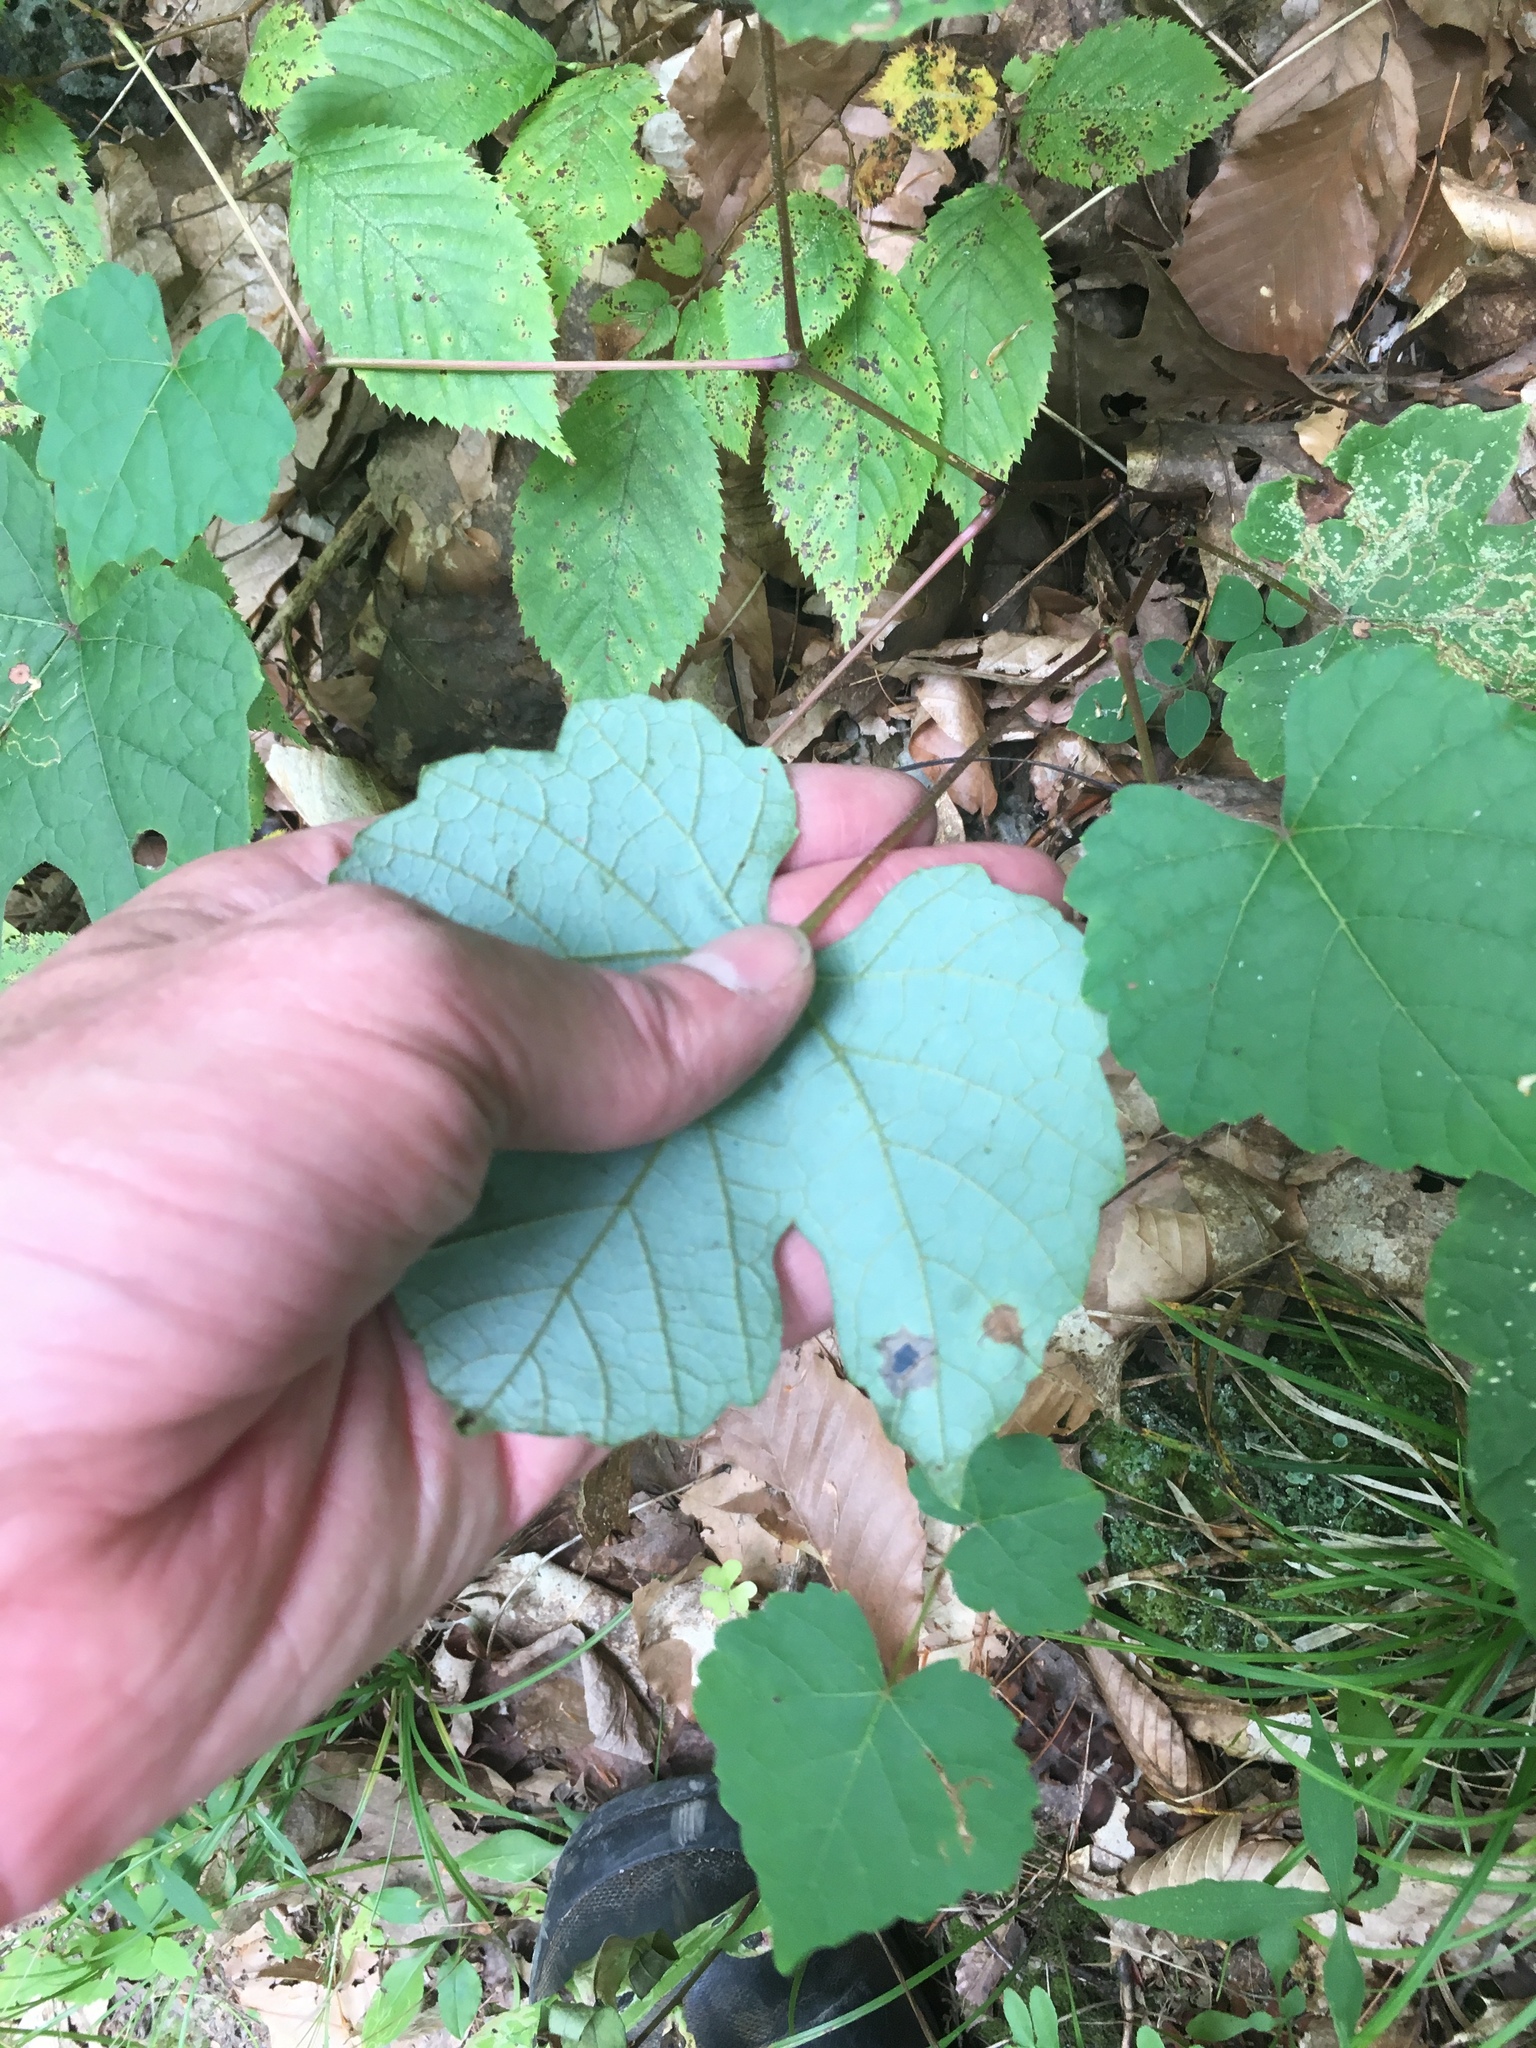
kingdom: Plantae
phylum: Tracheophyta
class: Magnoliopsida
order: Vitales
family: Vitaceae
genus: Vitis
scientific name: Vitis aestivalis
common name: Pigeon grape
